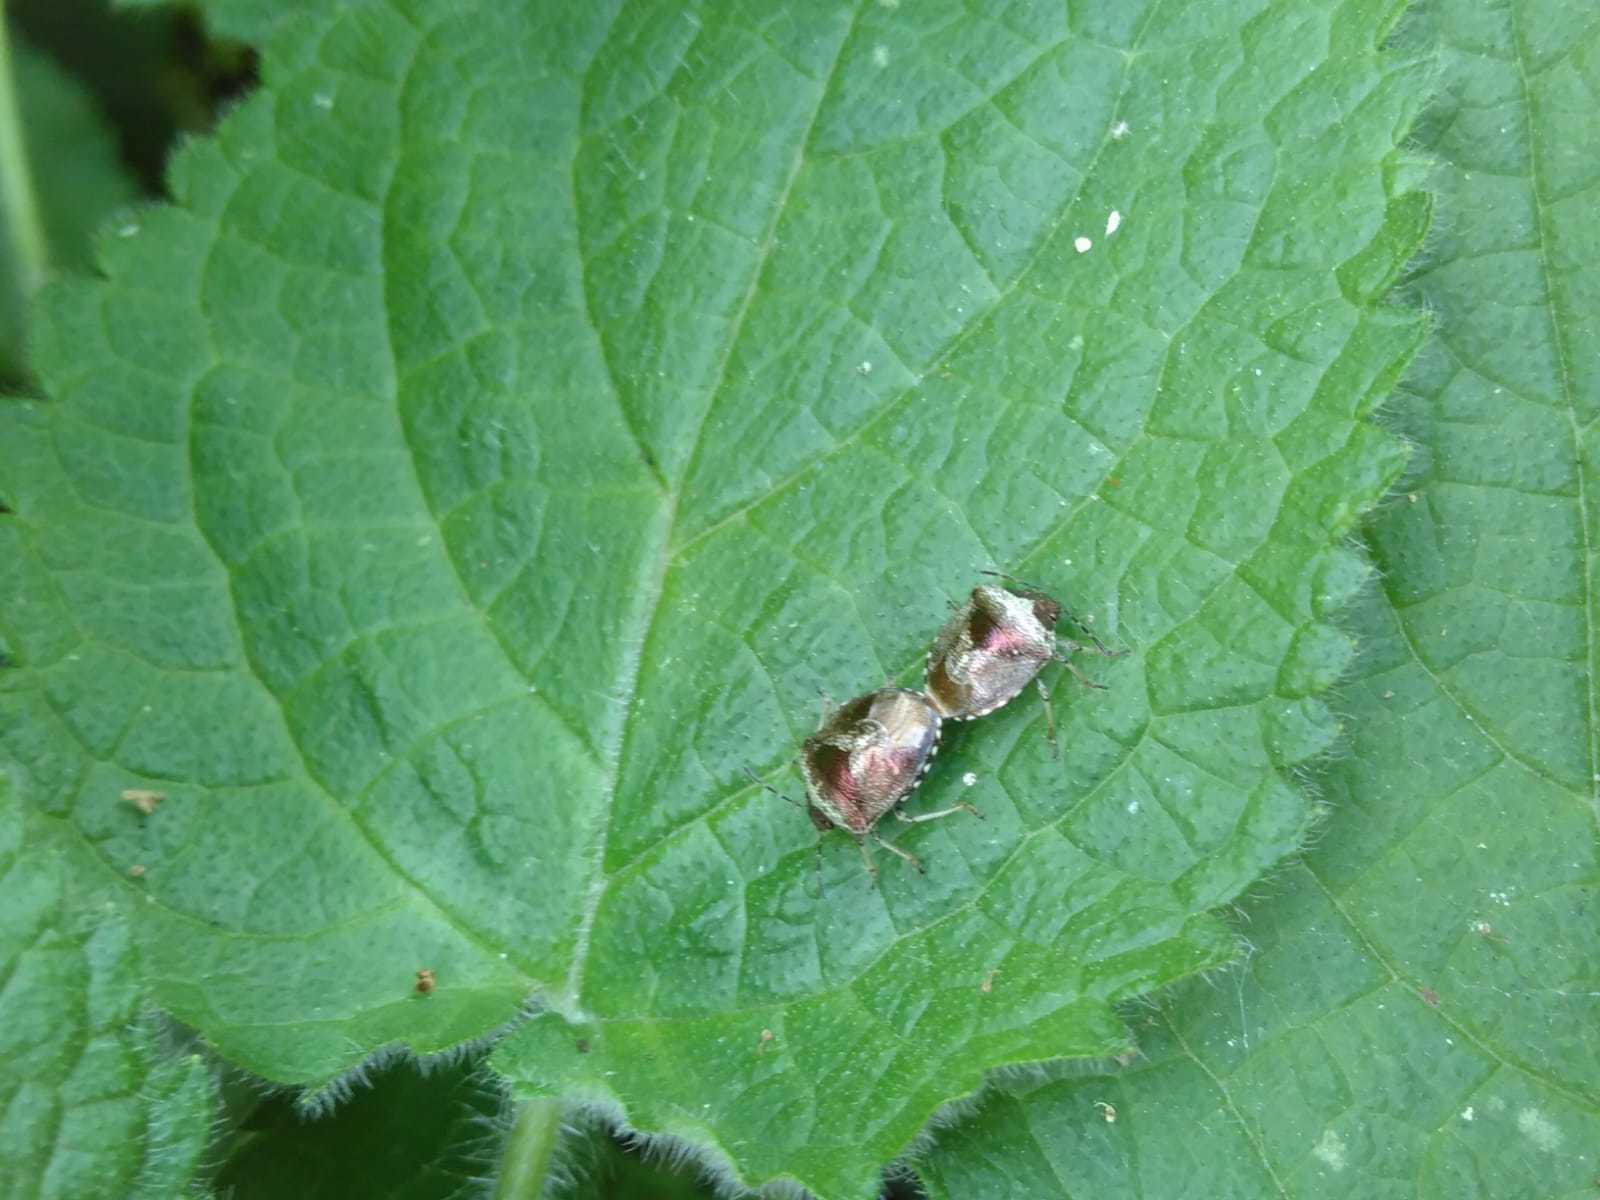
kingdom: Animalia
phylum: Arthropoda
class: Insecta
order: Hemiptera
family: Pentatomidae
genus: Eysarcoris
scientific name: Eysarcoris venustissimus
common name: Woundwort shieldbug
